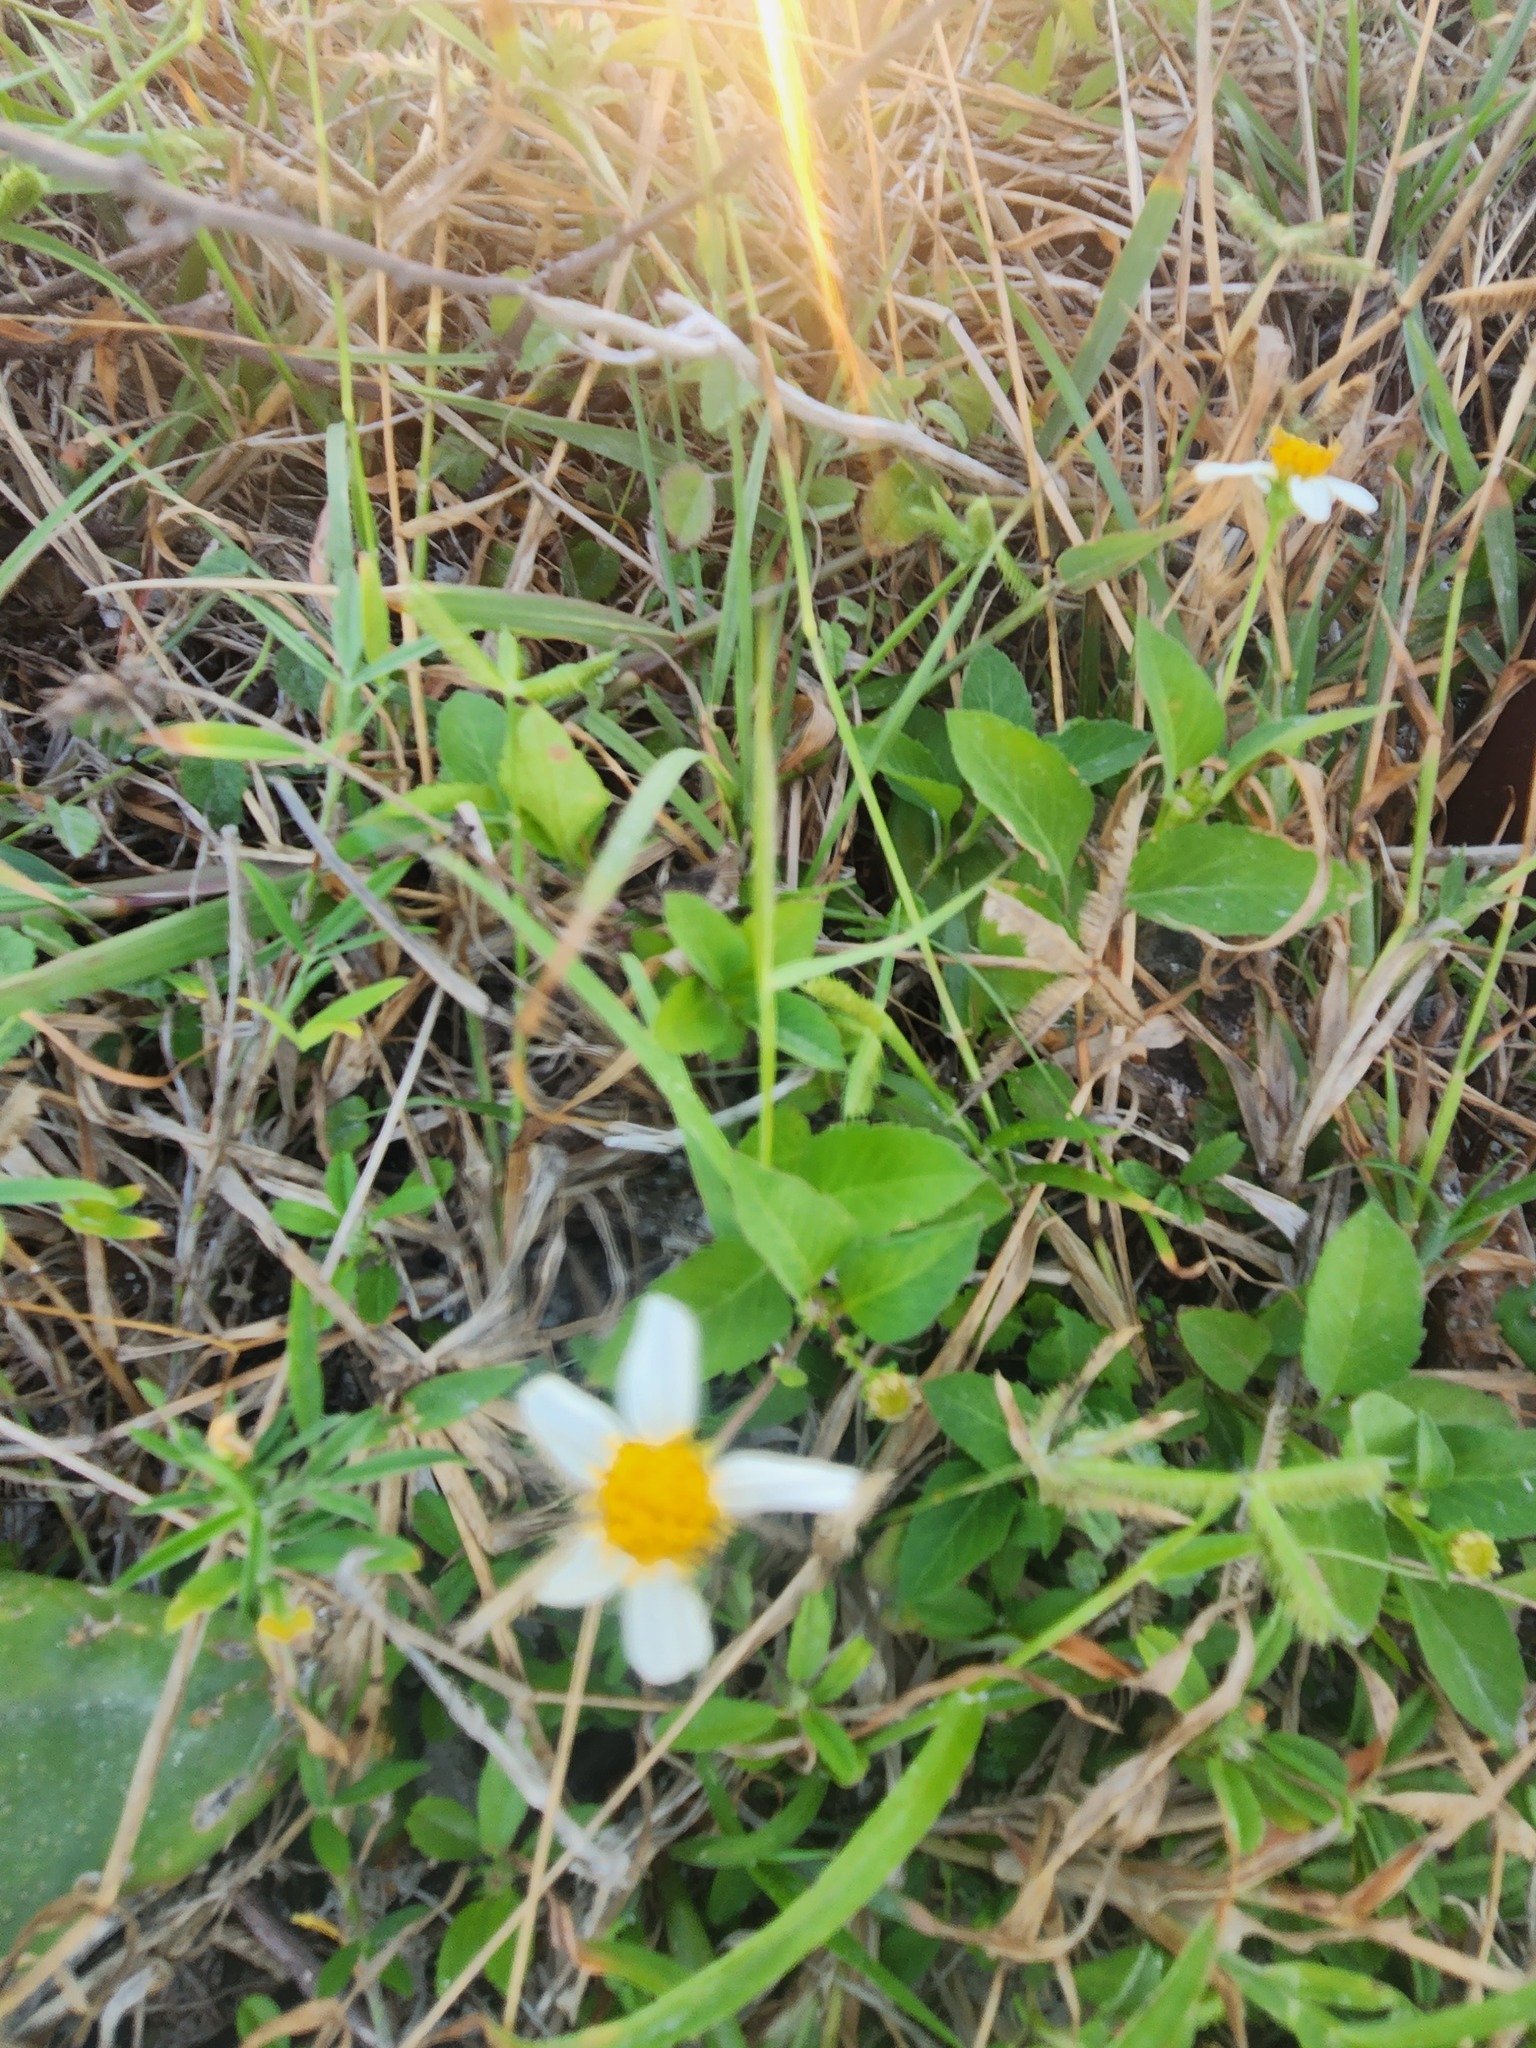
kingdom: Plantae
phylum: Tracheophyta
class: Magnoliopsida
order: Asterales
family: Asteraceae
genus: Bidens
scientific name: Bidens alba
